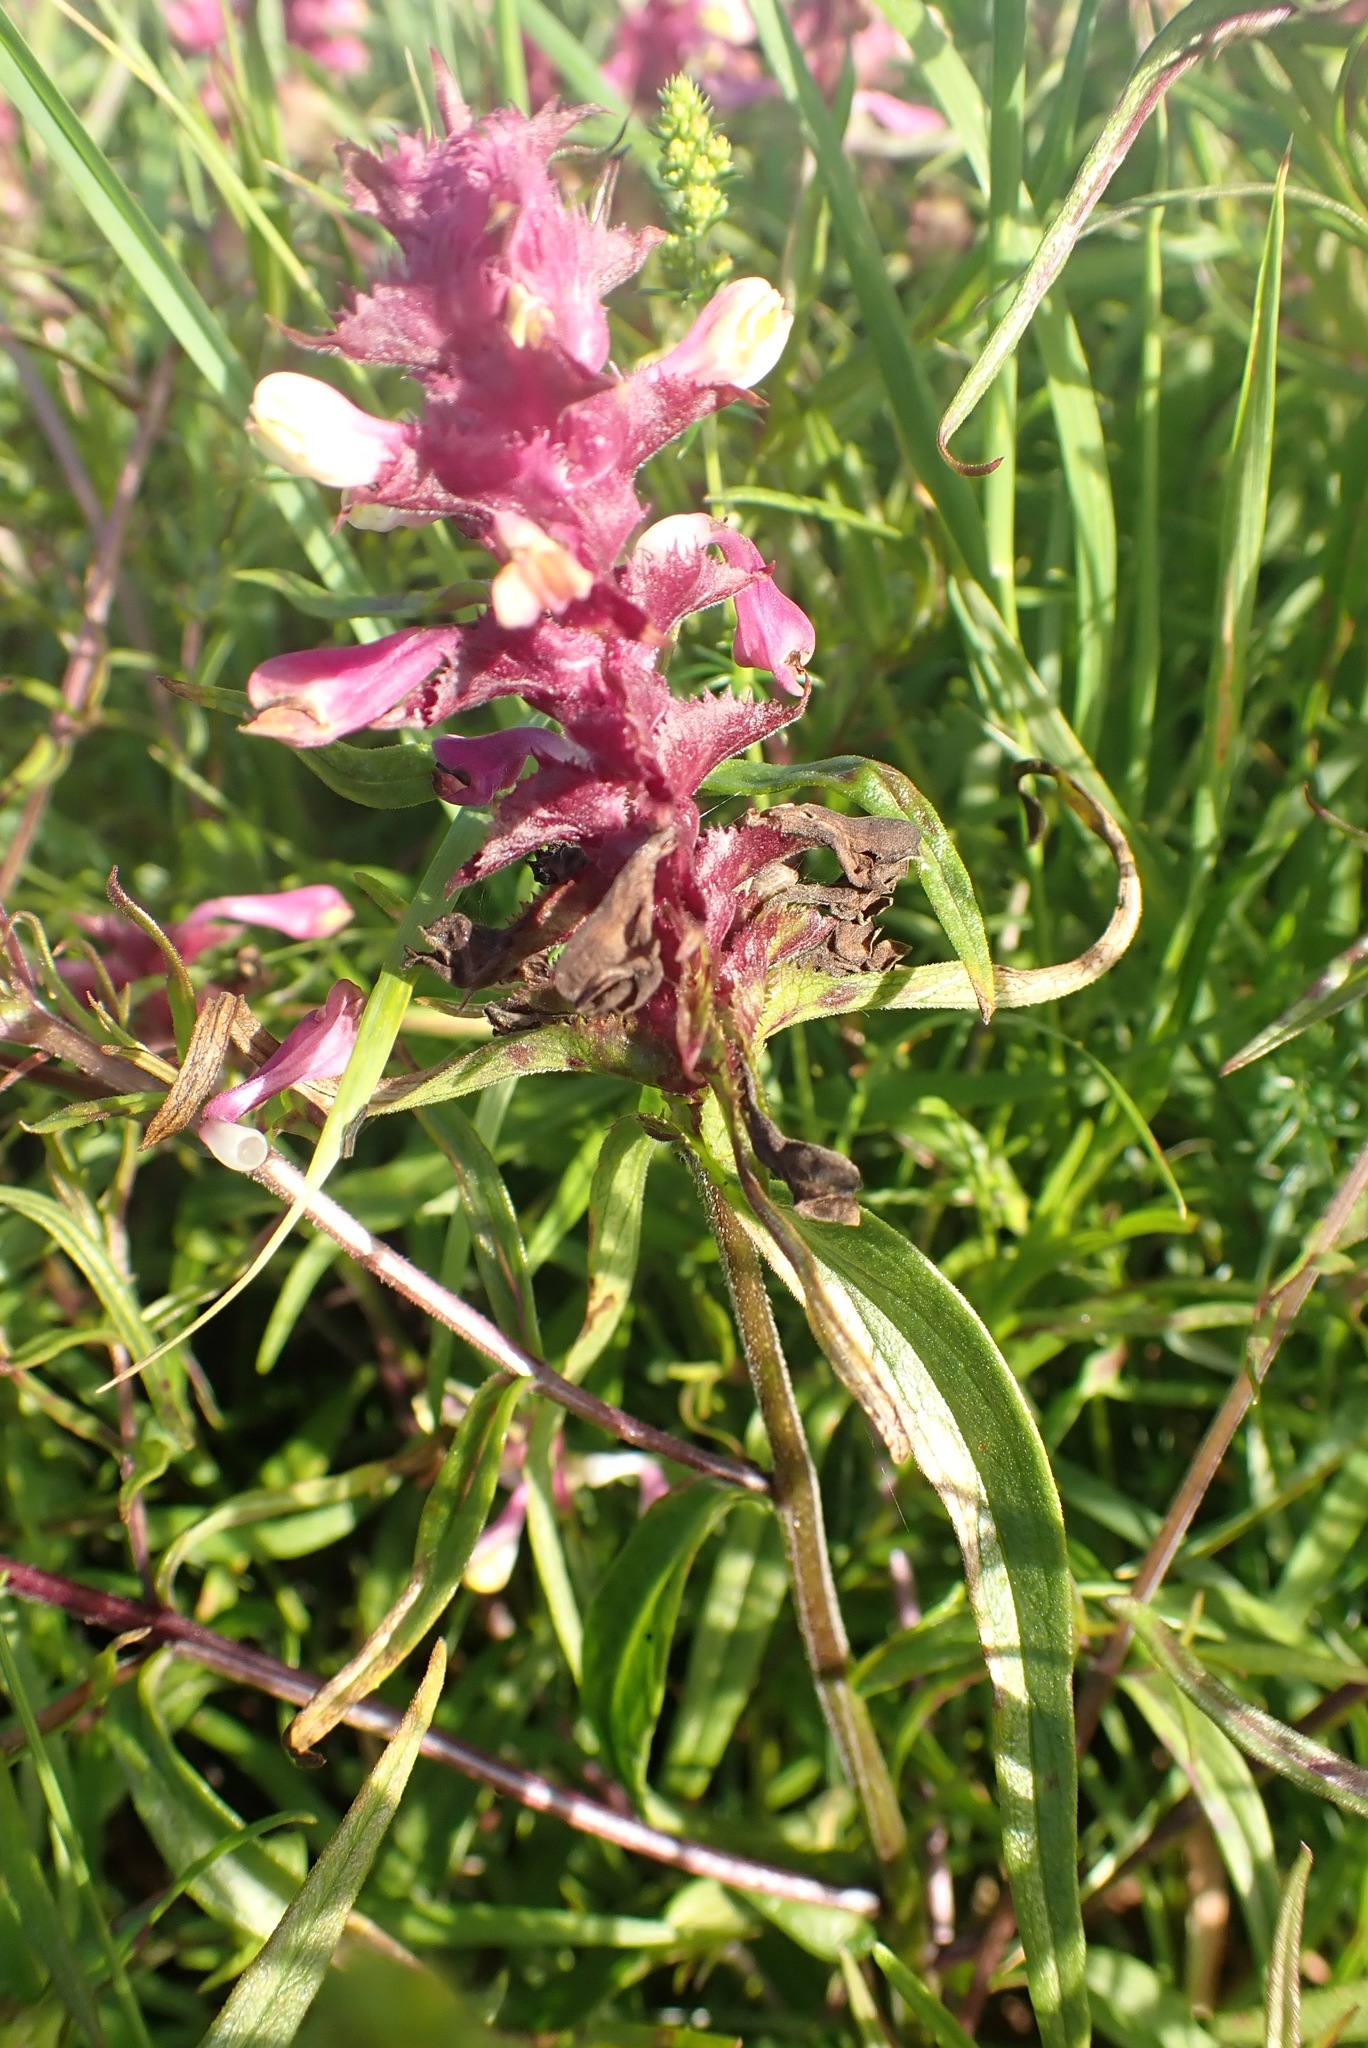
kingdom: Plantae
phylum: Tracheophyta
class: Magnoliopsida
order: Lamiales
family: Orobanchaceae
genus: Melampyrum
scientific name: Melampyrum cristatum
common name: Crested cow-wheat
